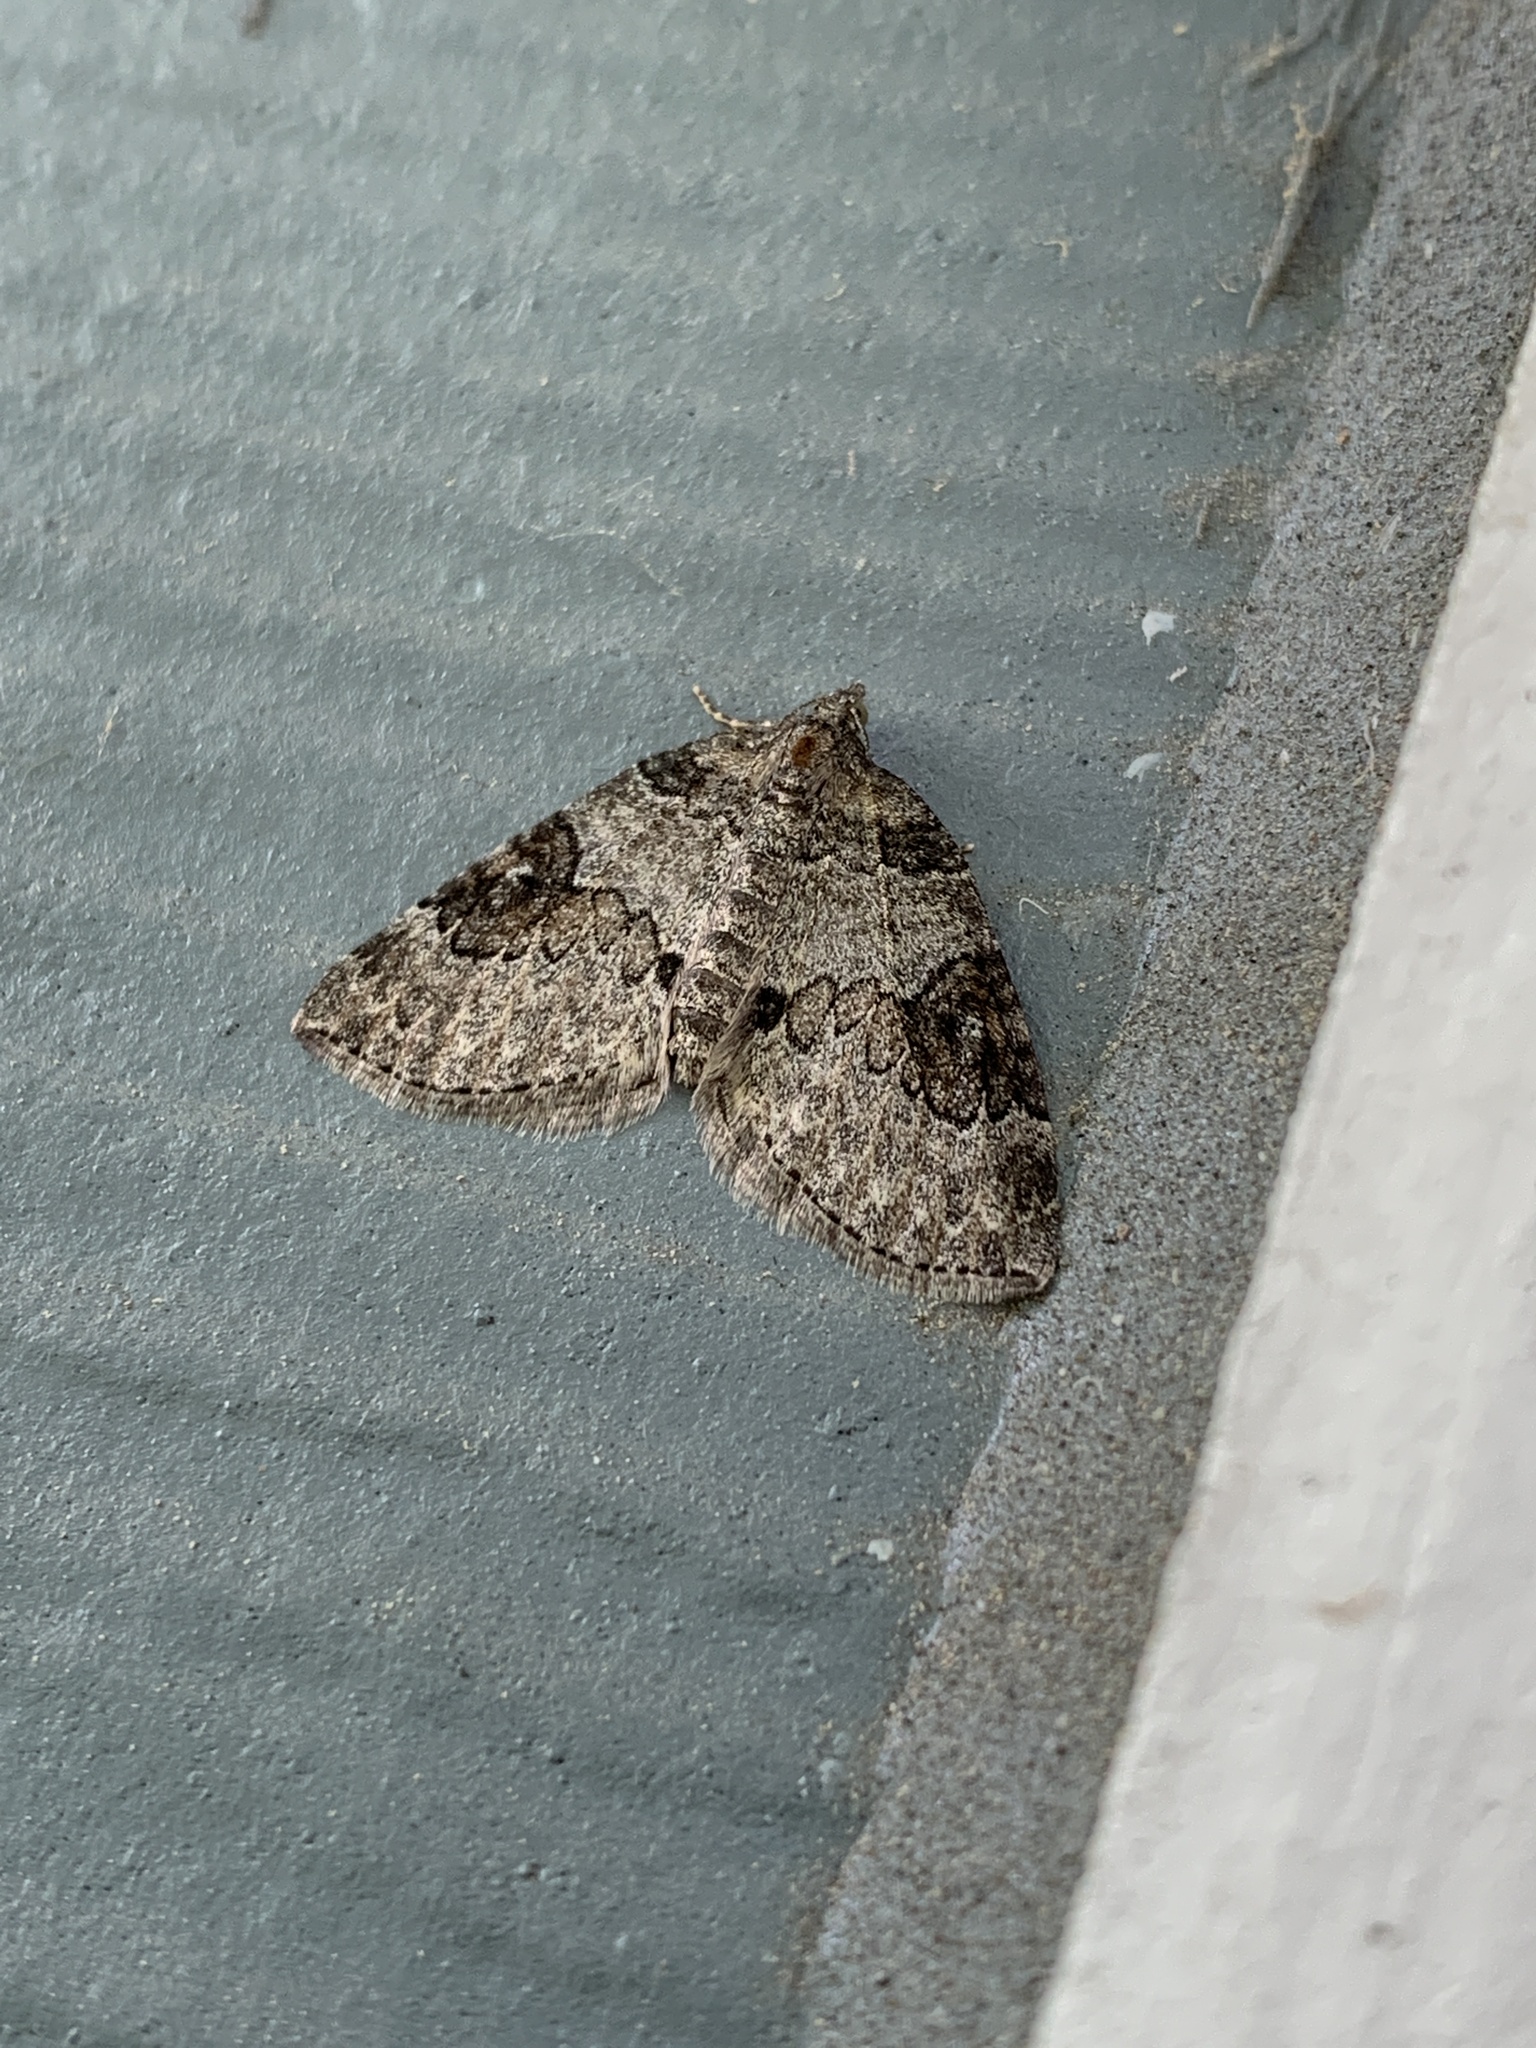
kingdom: Animalia
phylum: Arthropoda
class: Insecta
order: Lepidoptera
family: Geometridae
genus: Plemyria
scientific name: Plemyria georgii
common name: George's carpet moth
